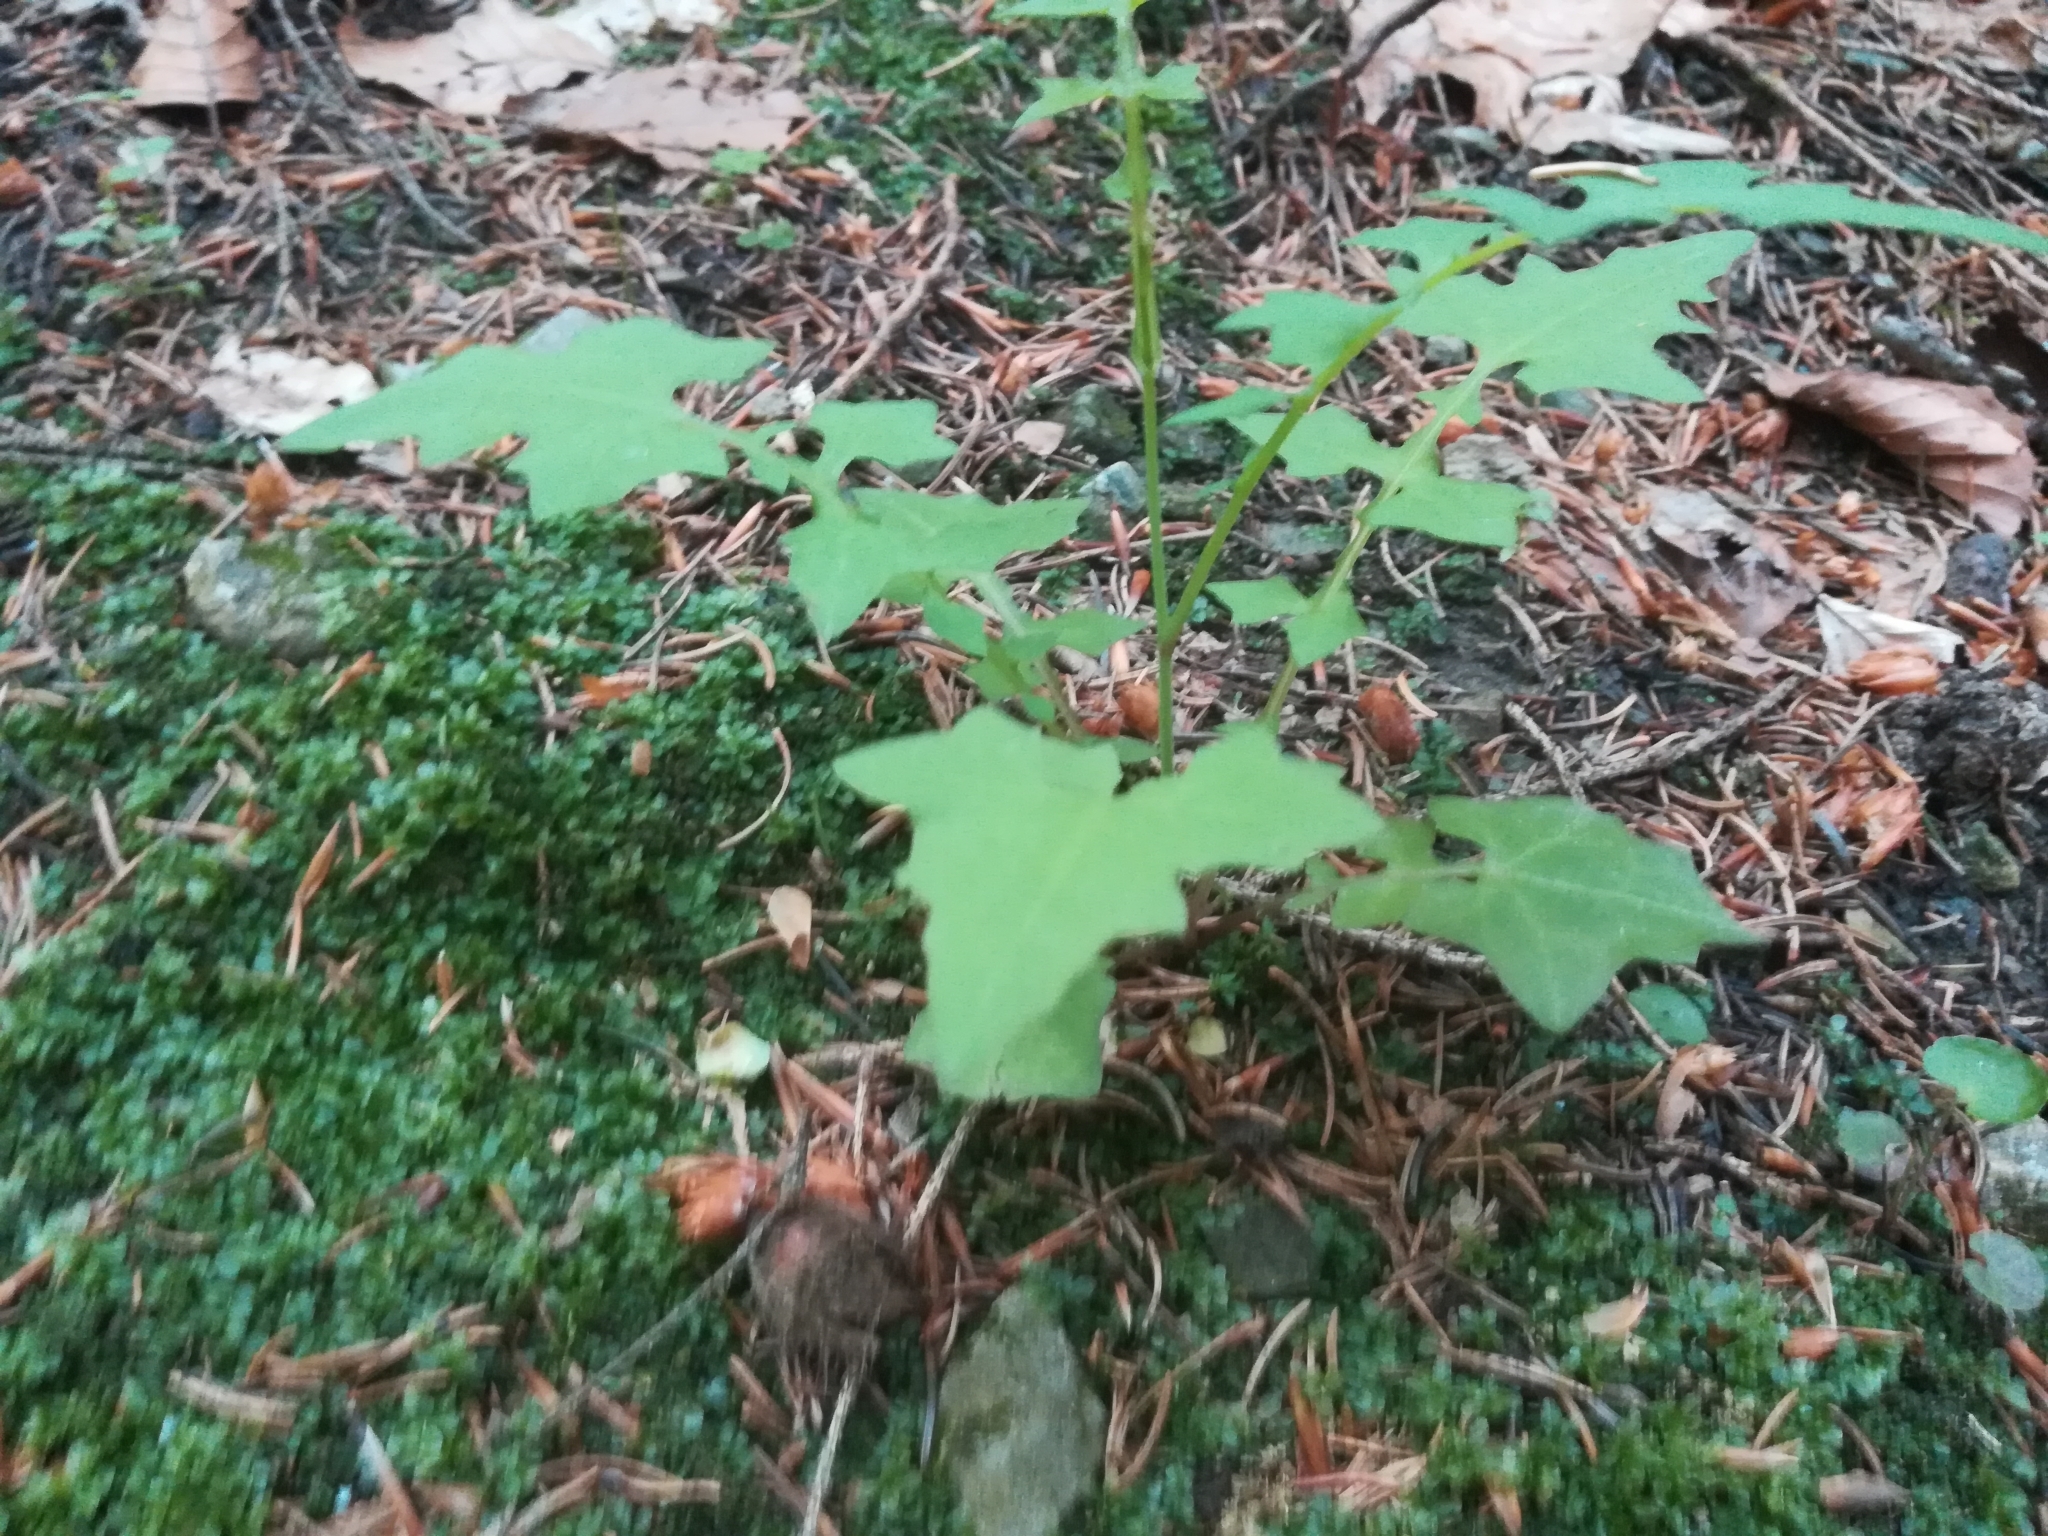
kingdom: Plantae
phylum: Tracheophyta
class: Magnoliopsida
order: Asterales
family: Asteraceae
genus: Mycelis
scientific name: Mycelis muralis
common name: Wall lettuce
